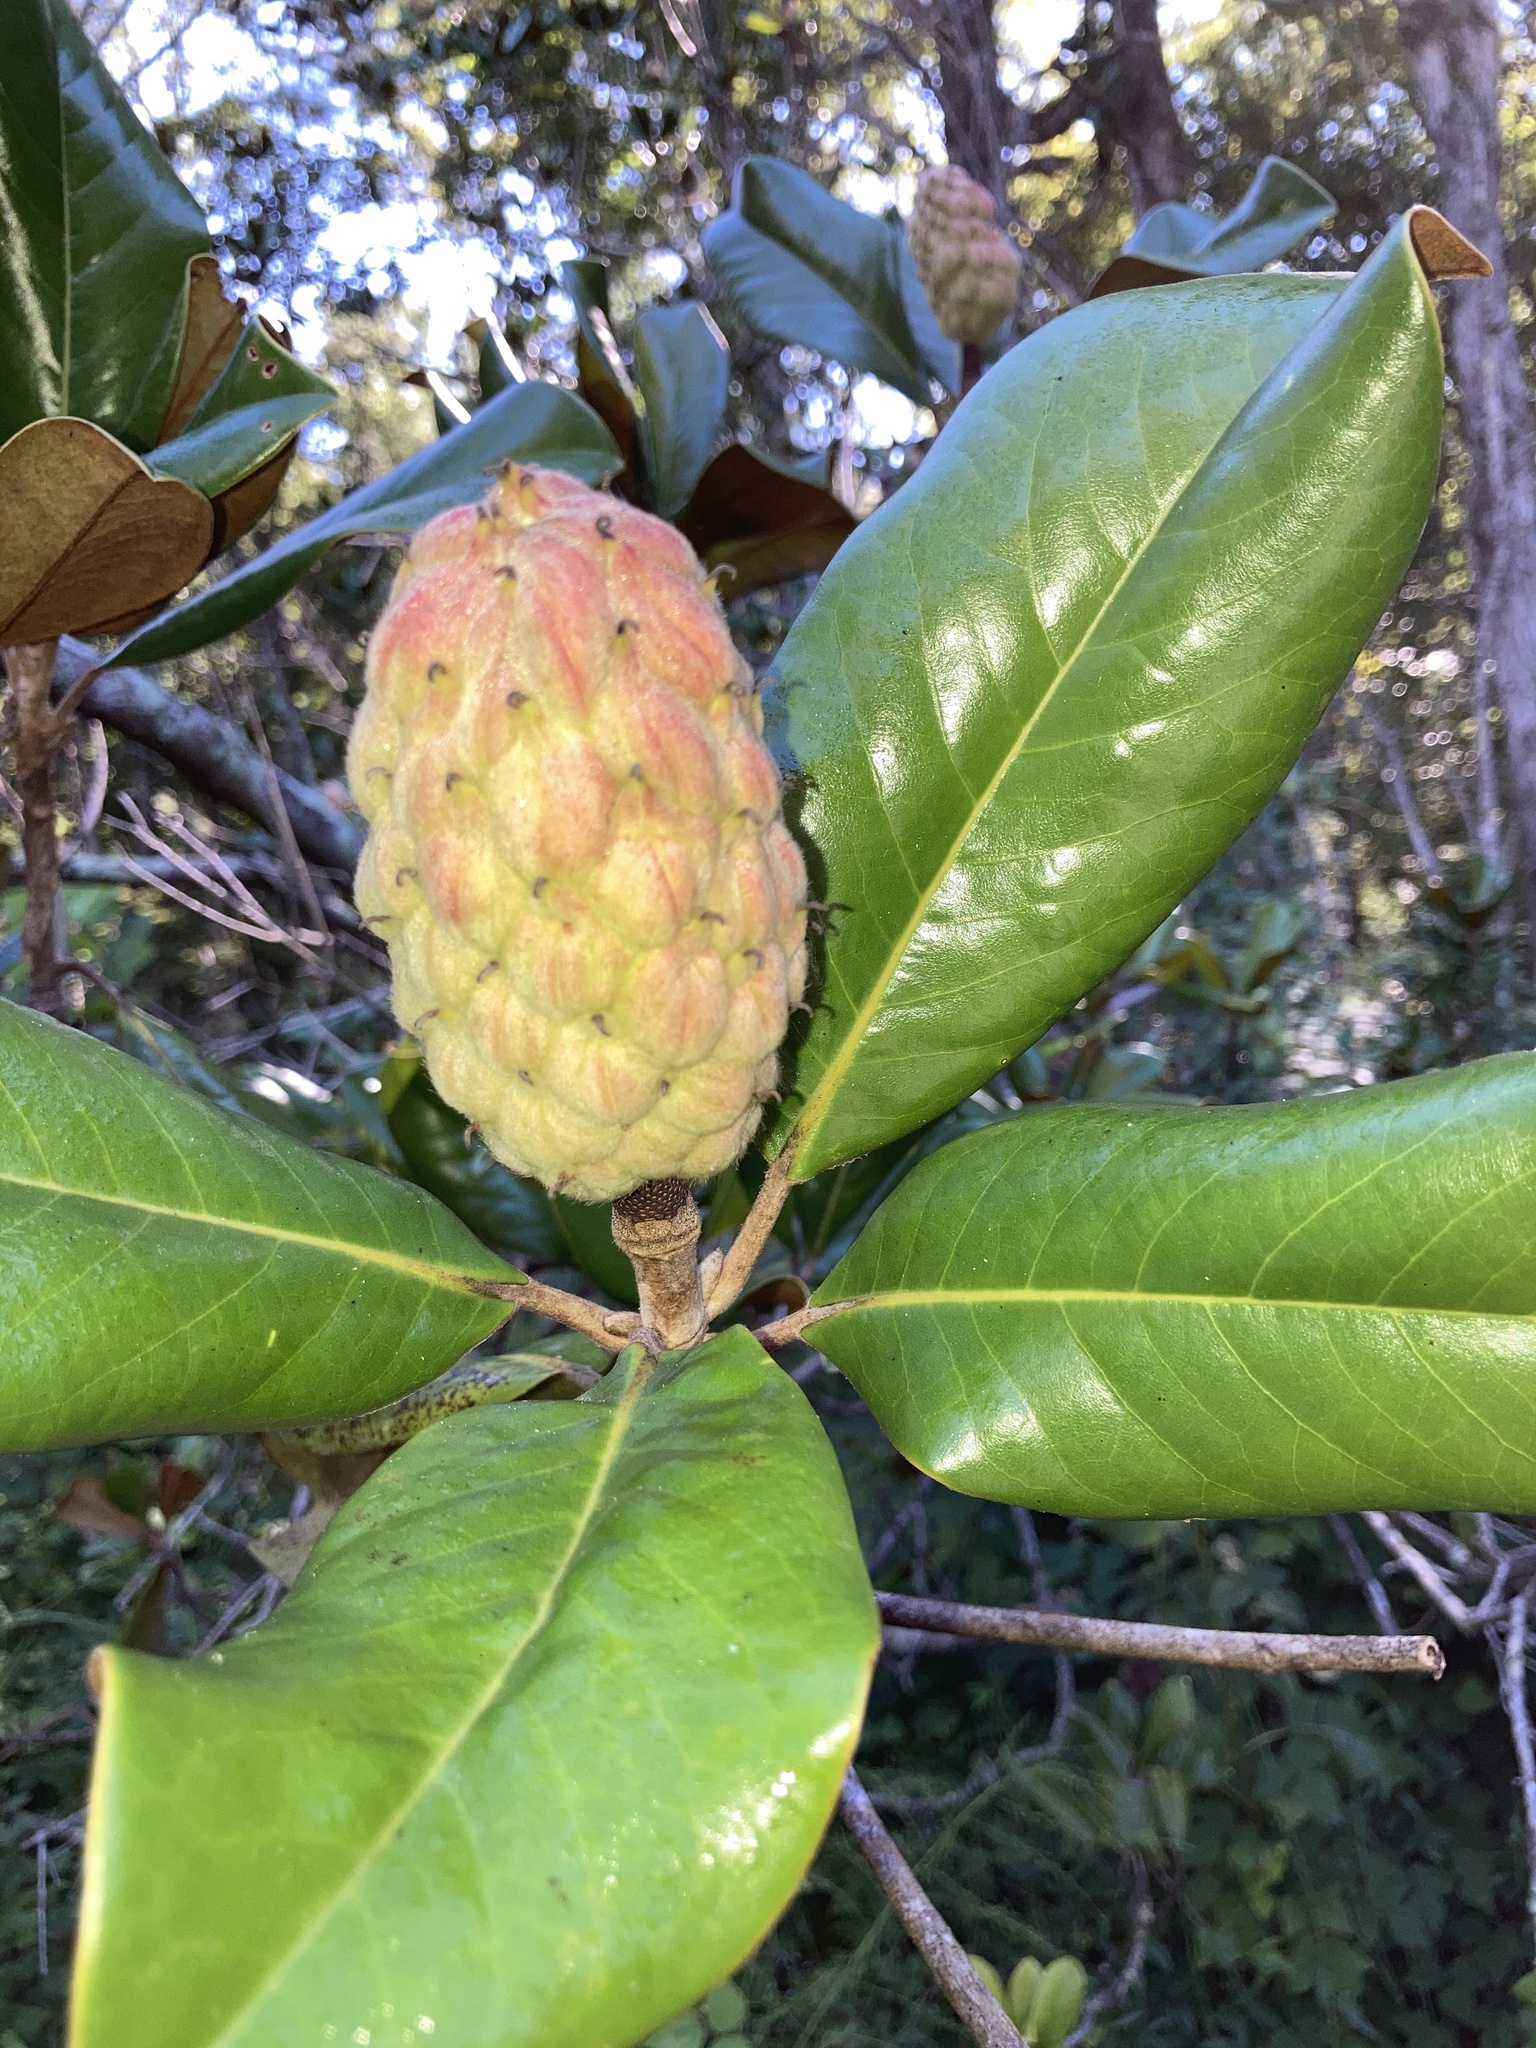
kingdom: Plantae
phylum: Tracheophyta
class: Magnoliopsida
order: Magnoliales
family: Magnoliaceae
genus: Magnolia
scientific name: Magnolia grandiflora
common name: Southern magnolia
